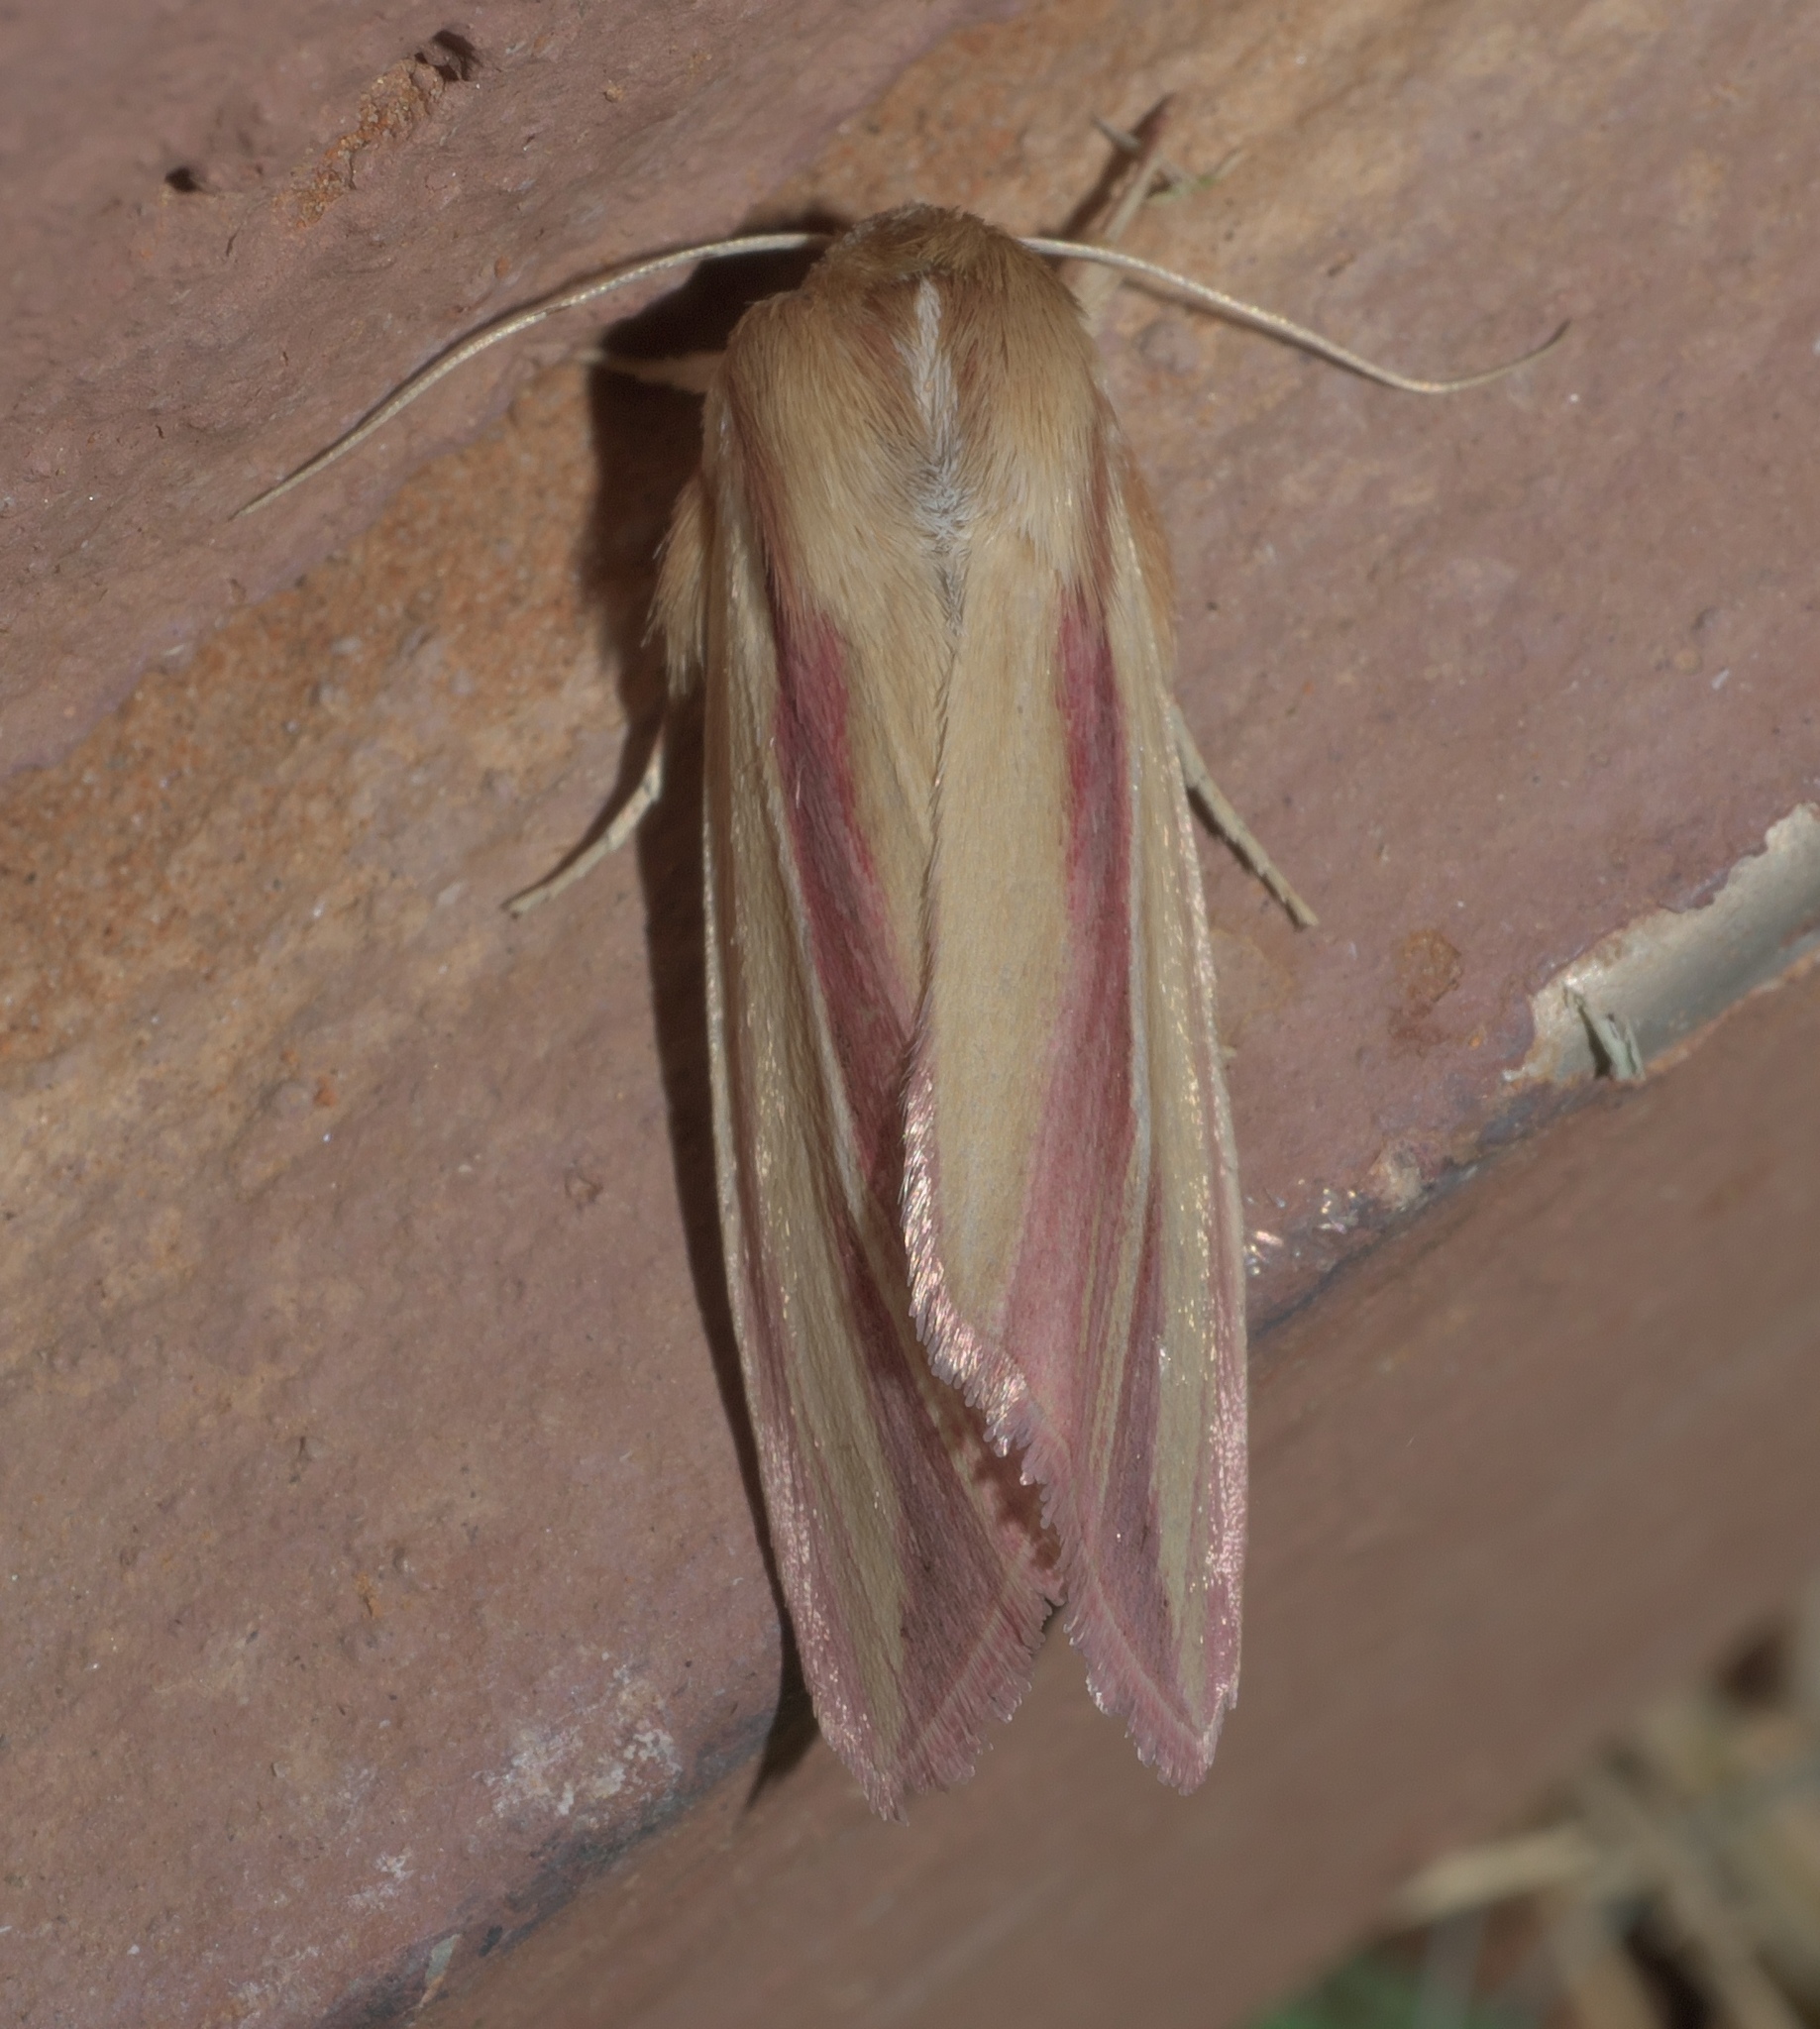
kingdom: Animalia
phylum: Arthropoda
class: Insecta
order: Lepidoptera
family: Noctuidae
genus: Dargida
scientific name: Dargida rubripennis
